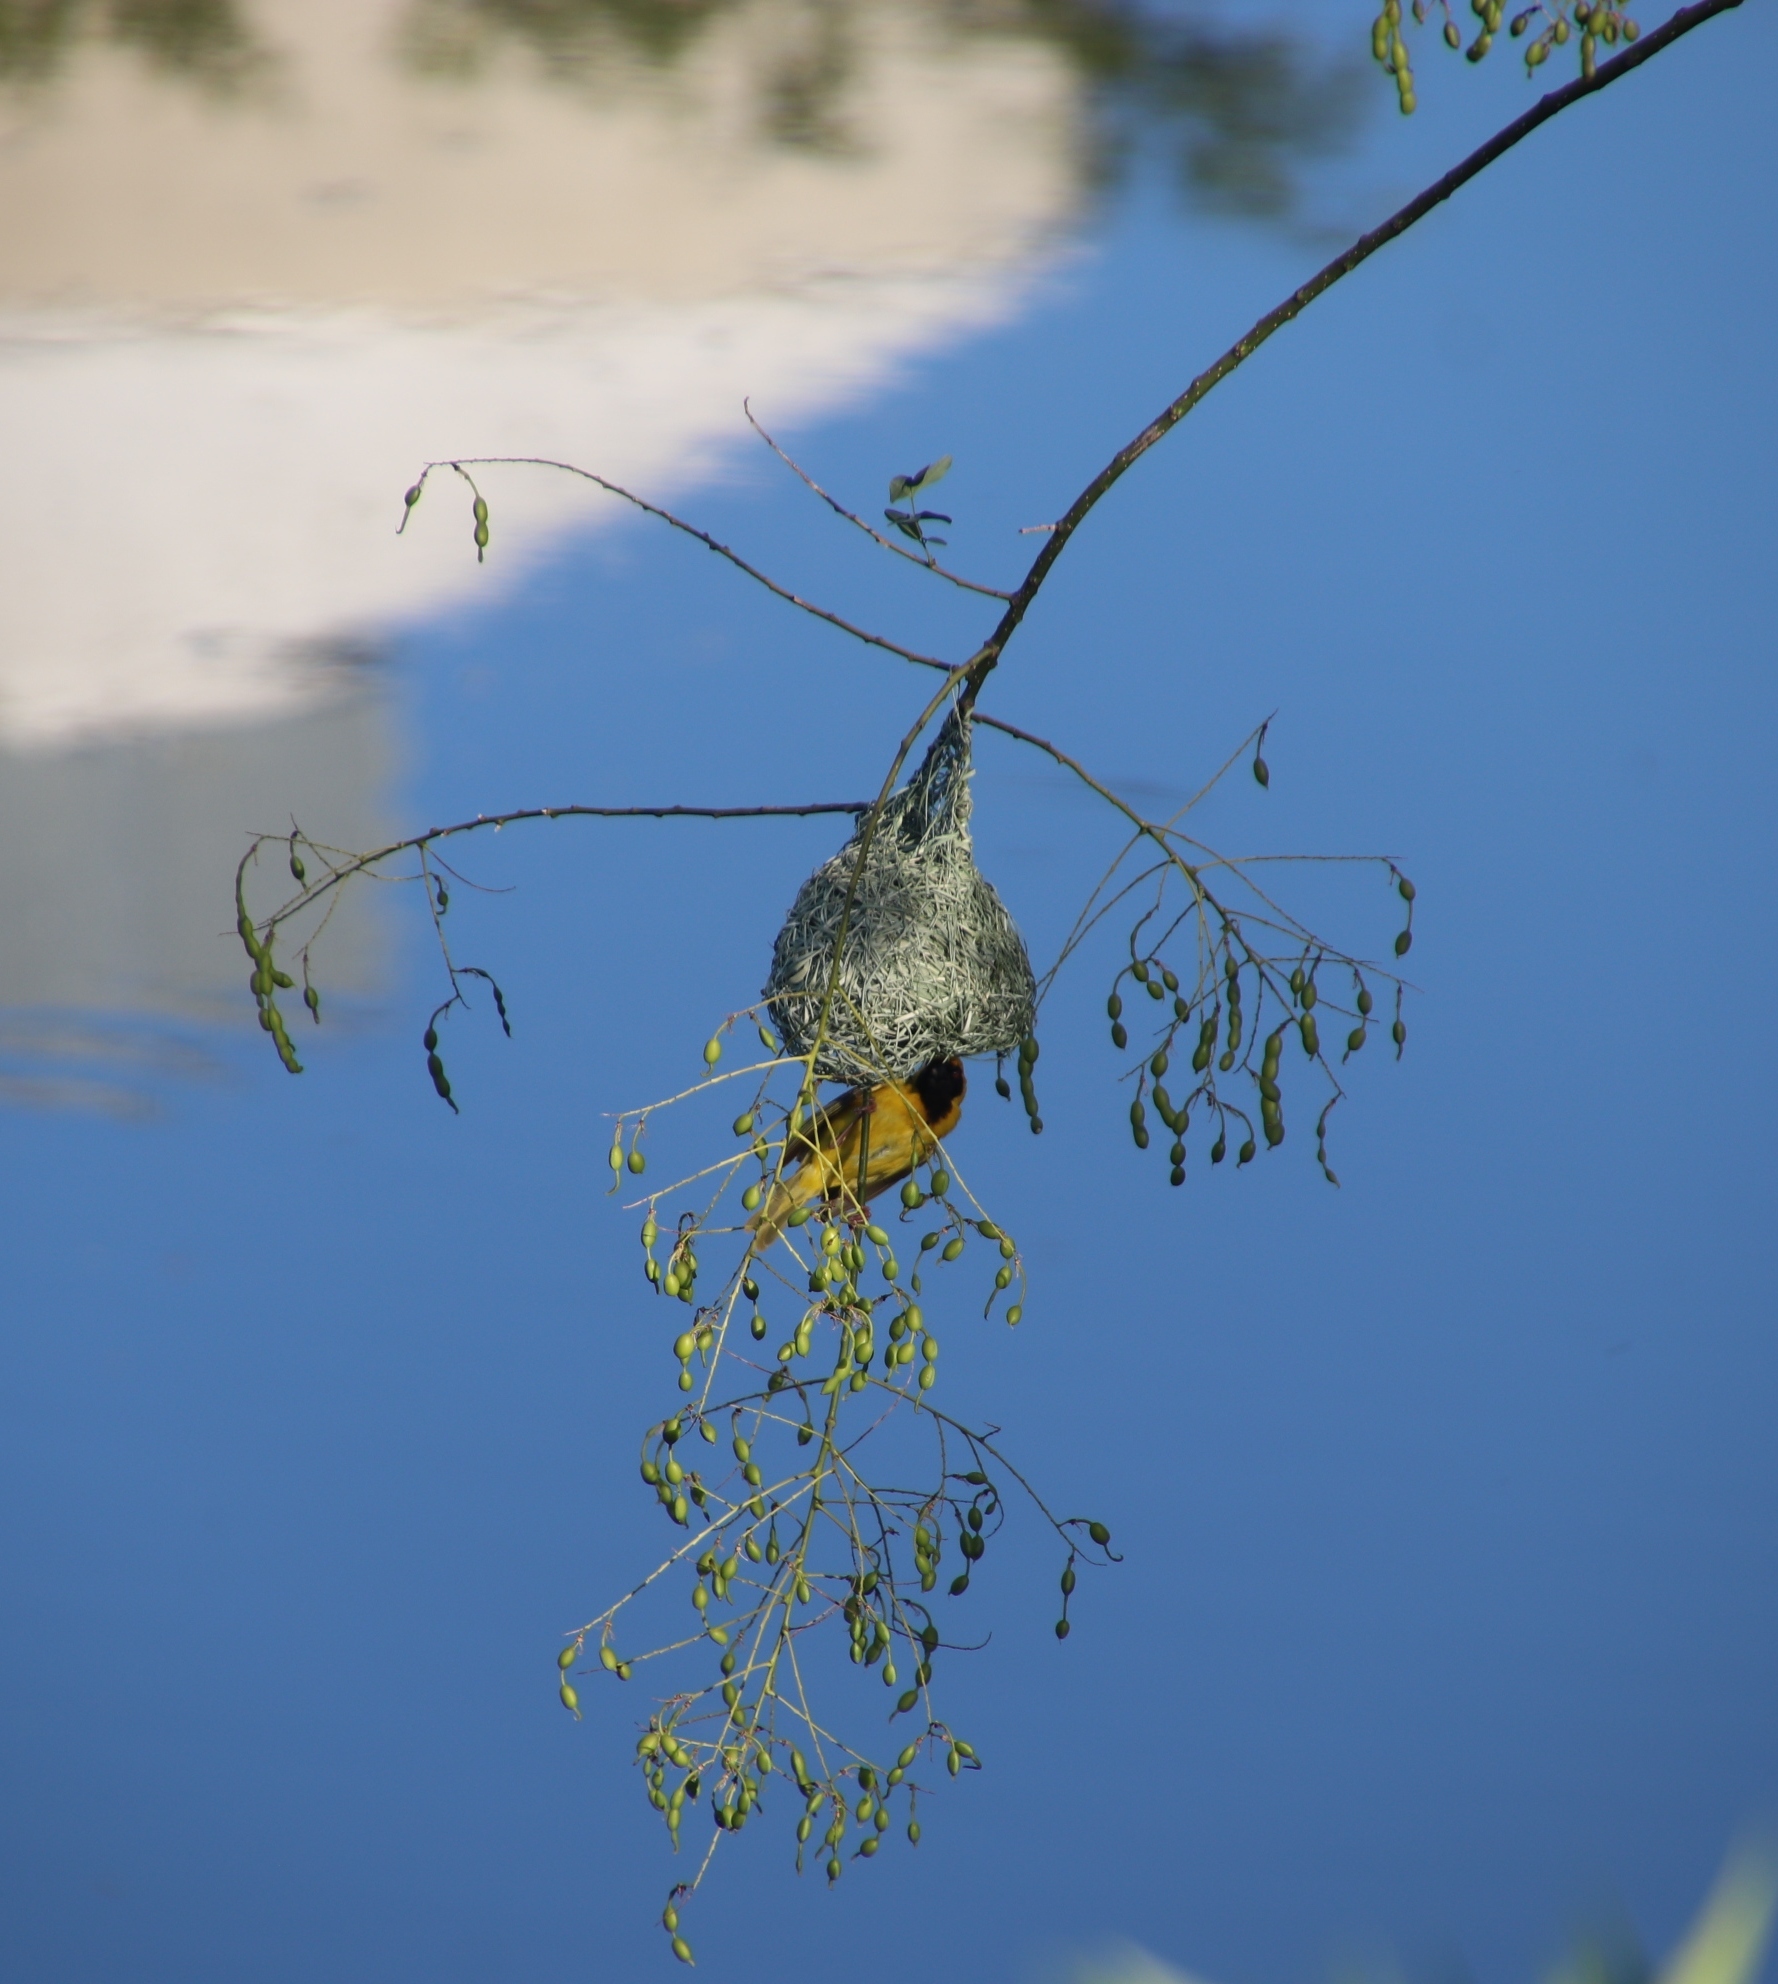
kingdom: Animalia
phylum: Chordata
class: Aves
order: Passeriformes
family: Ploceidae
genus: Ploceus
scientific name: Ploceus velatus
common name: Southern masked weaver
